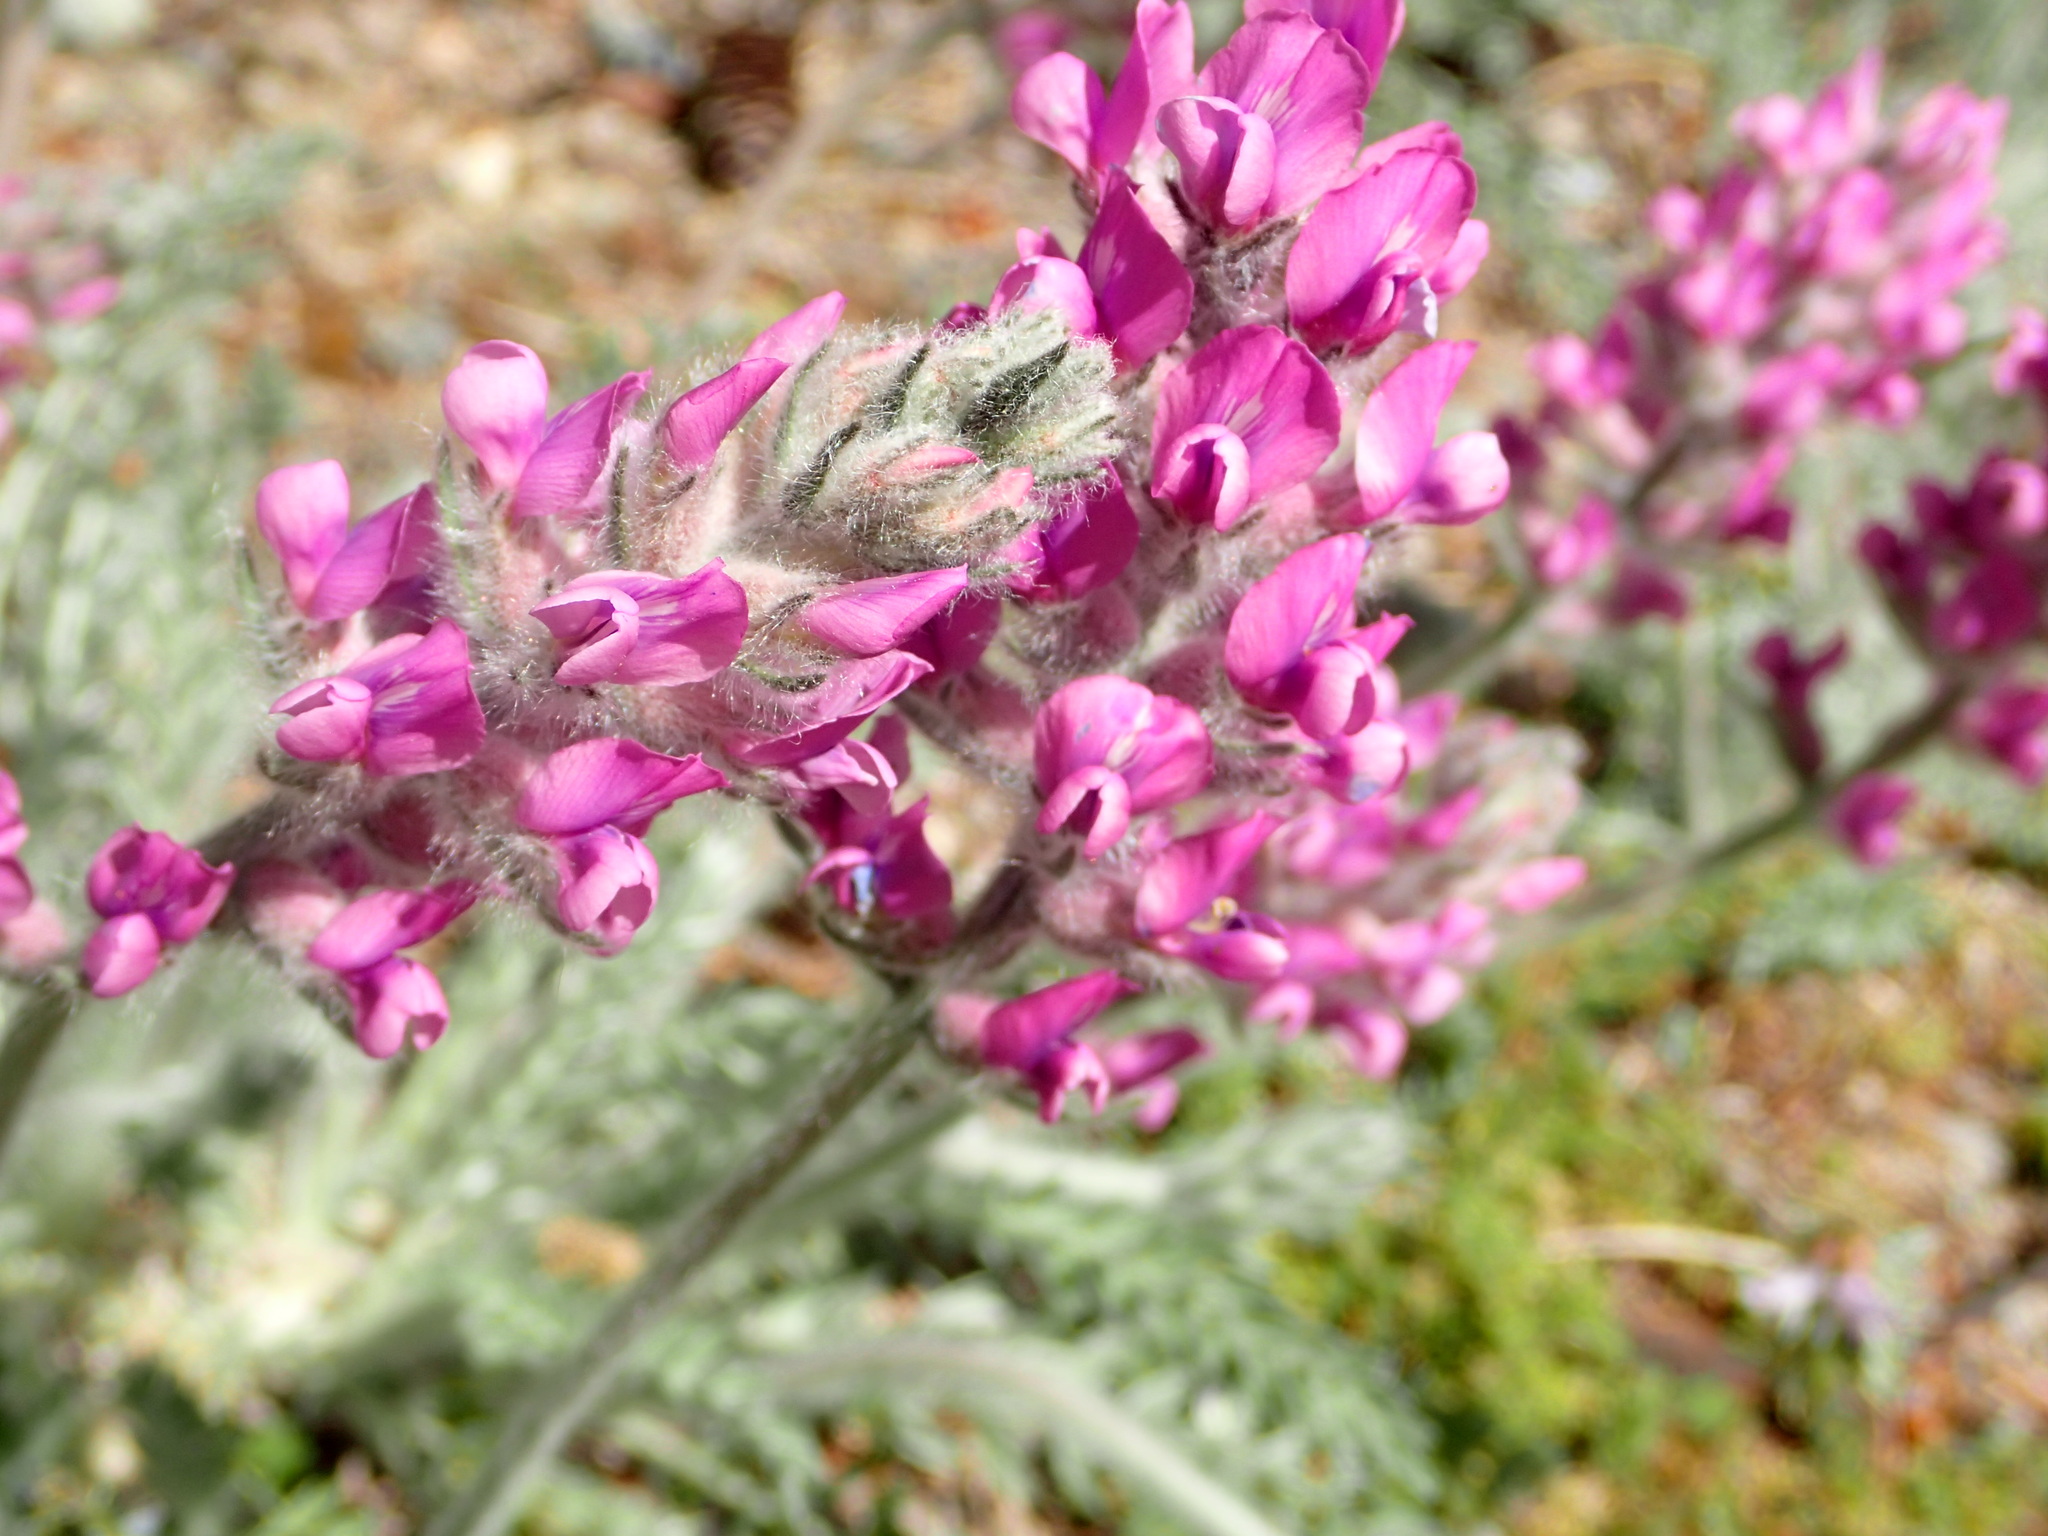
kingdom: Plantae
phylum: Tracheophyta
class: Magnoliopsida
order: Fabales
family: Fabaceae
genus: Oxytropis
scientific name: Oxytropis splendens
